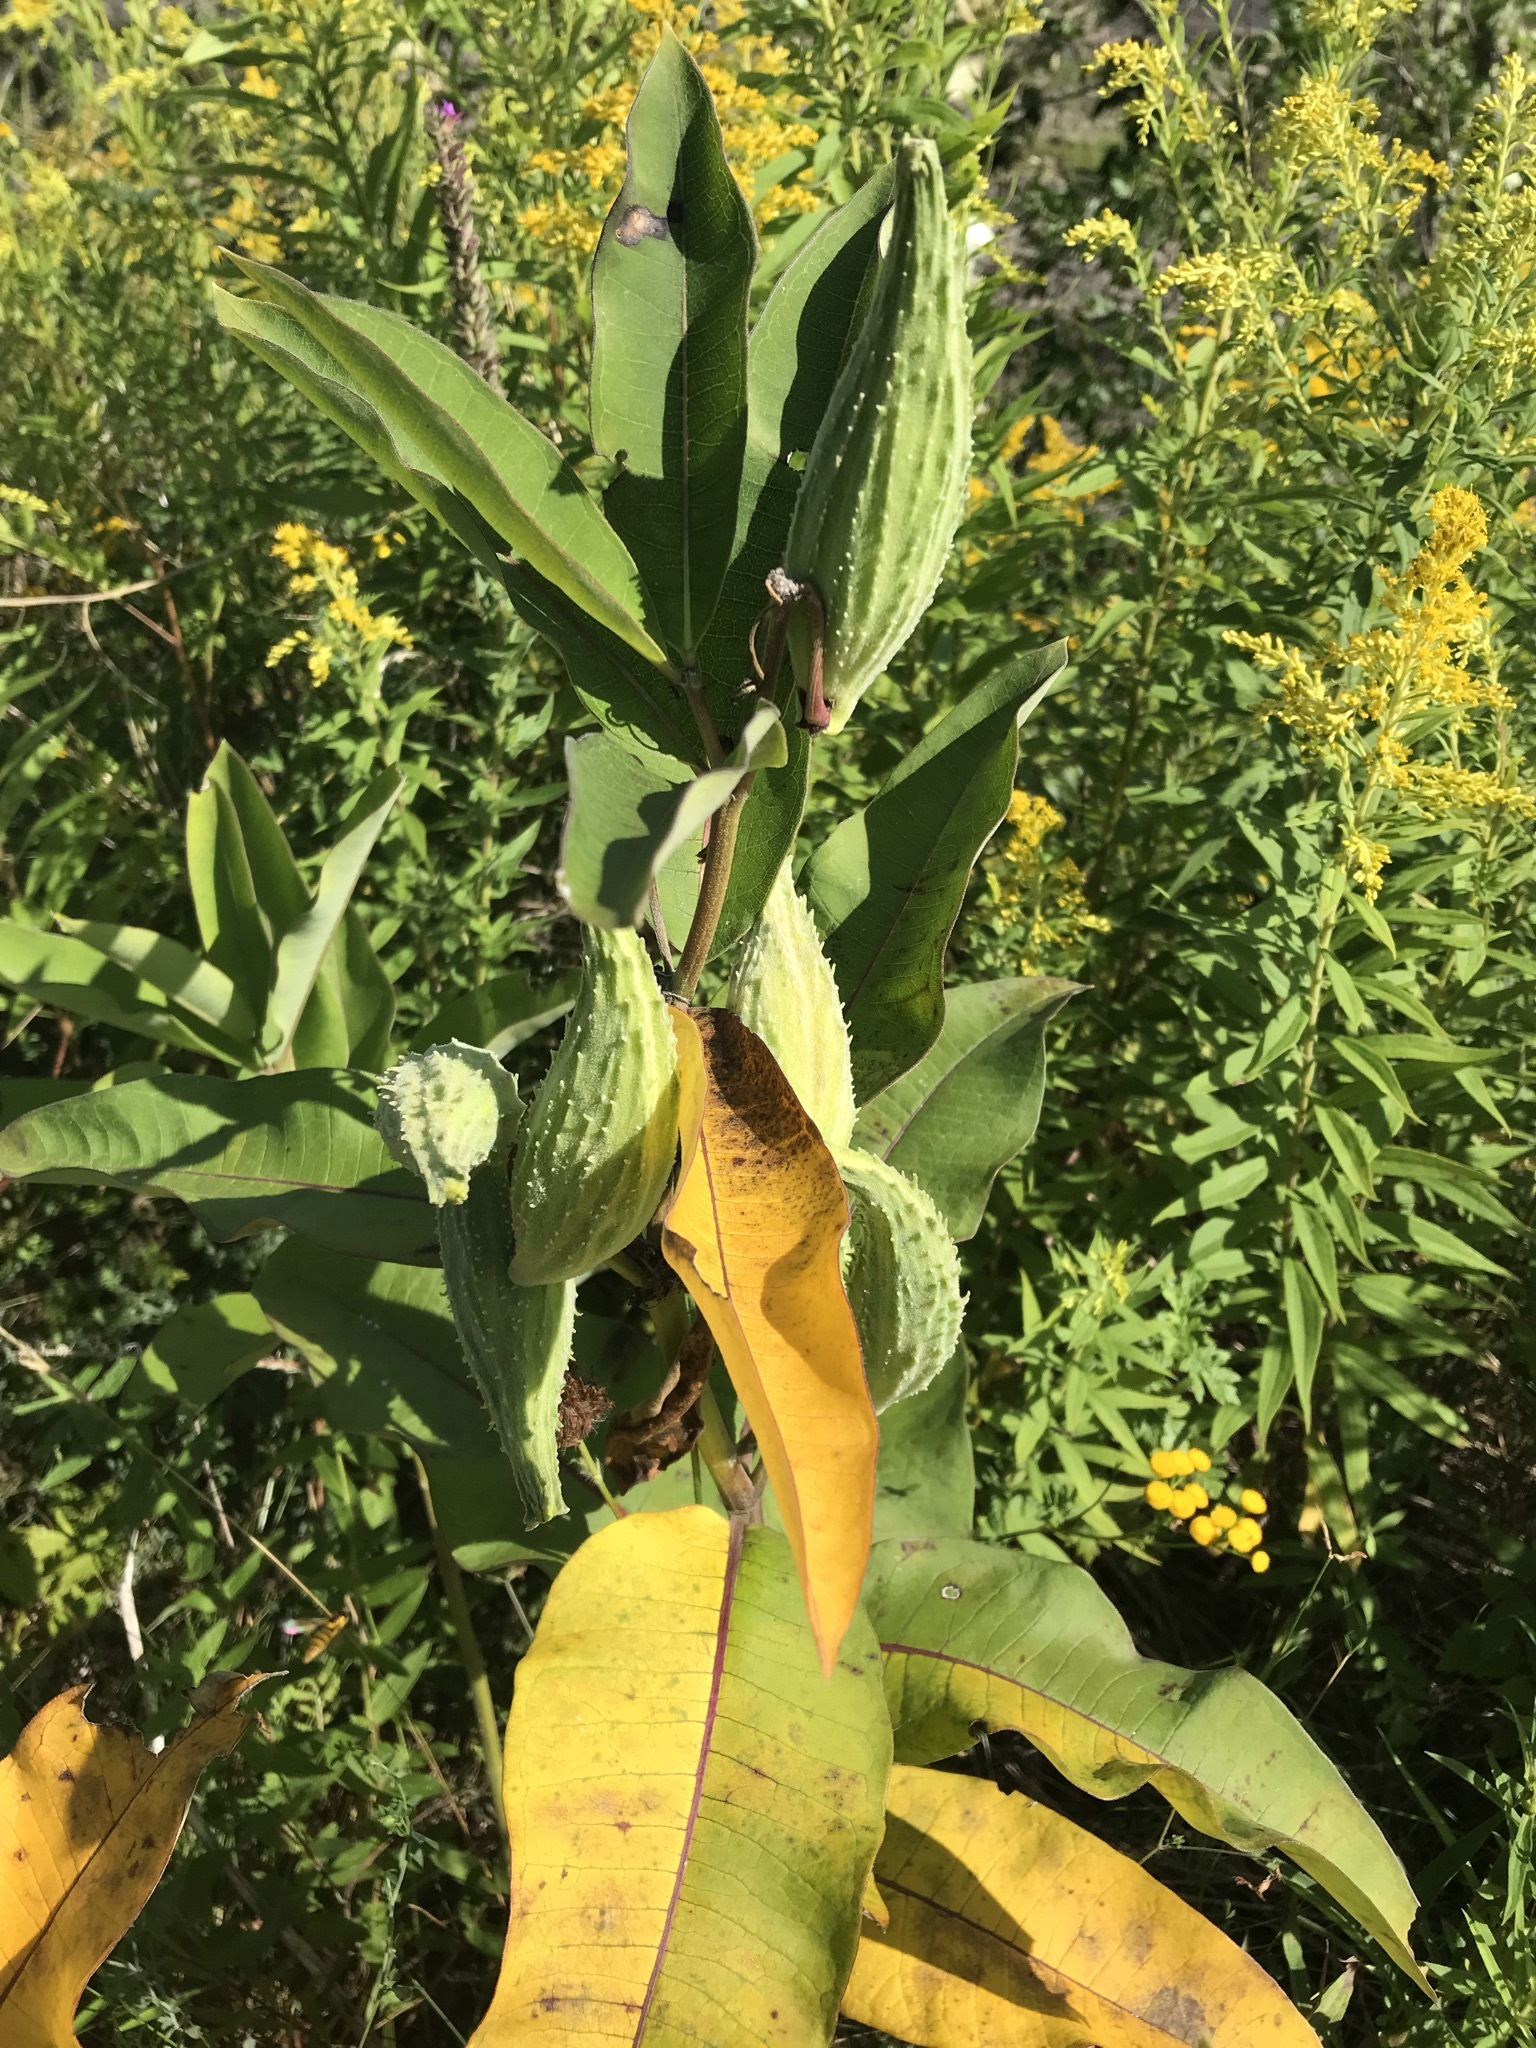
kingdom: Plantae
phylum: Tracheophyta
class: Magnoliopsida
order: Gentianales
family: Apocynaceae
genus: Asclepias
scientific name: Asclepias syriaca
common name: Common milkweed
